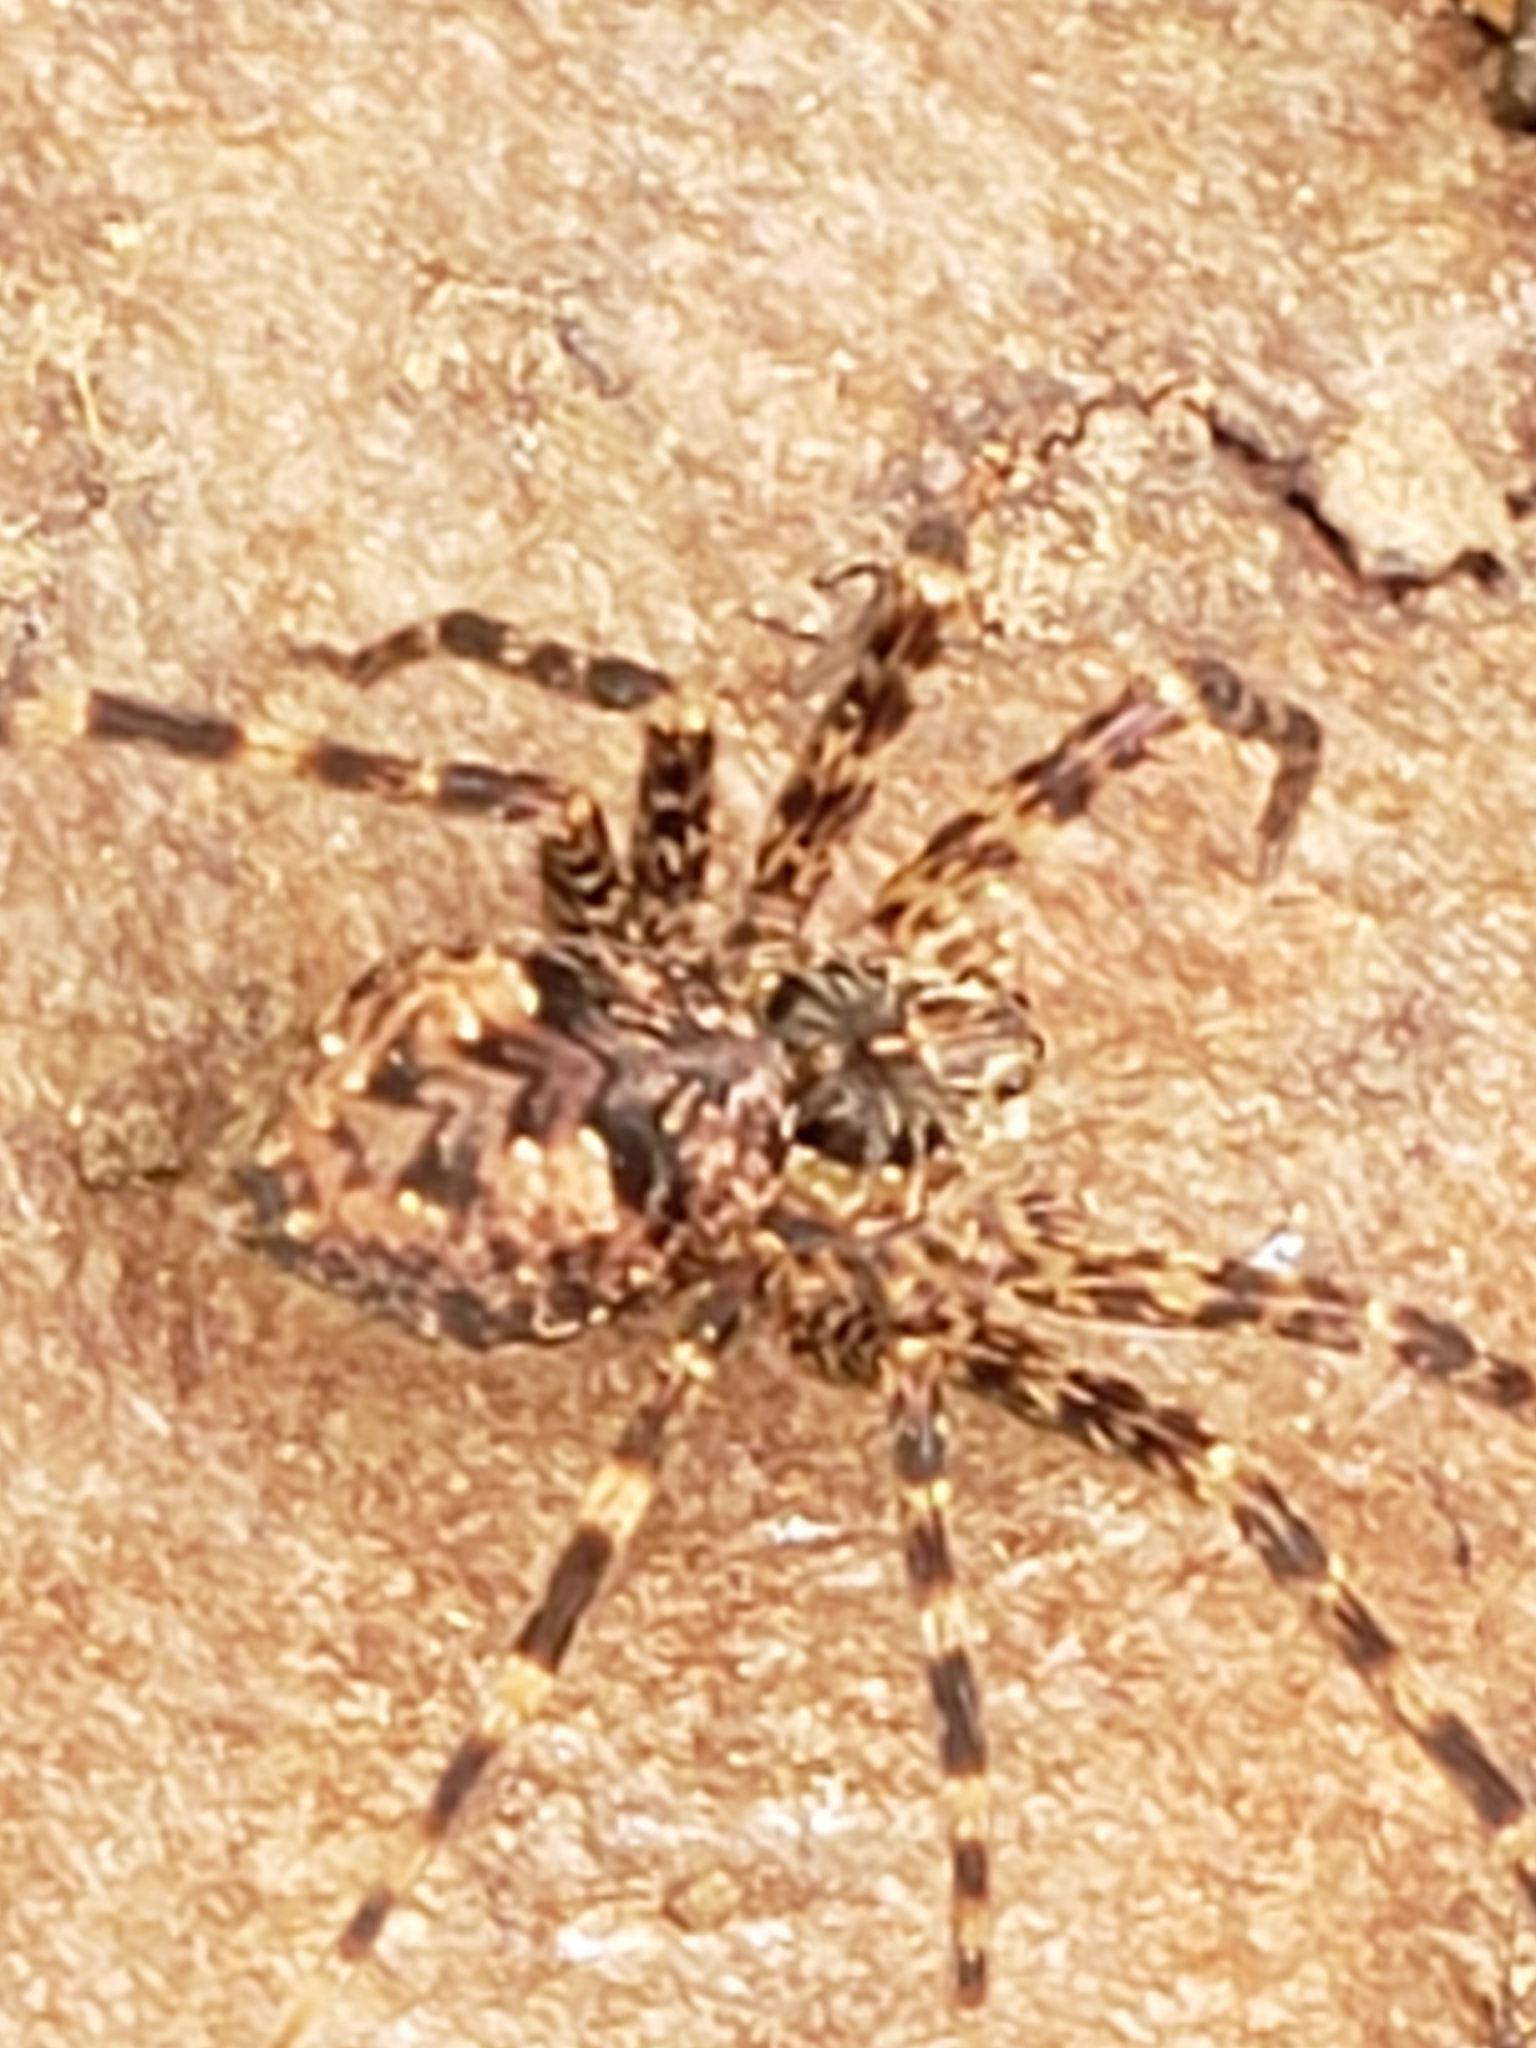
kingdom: Animalia
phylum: Arthropoda
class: Arachnida
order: Araneae
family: Pisauridae
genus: Dolomedes
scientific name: Dolomedes tenebrosus
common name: Dark fishing spider
